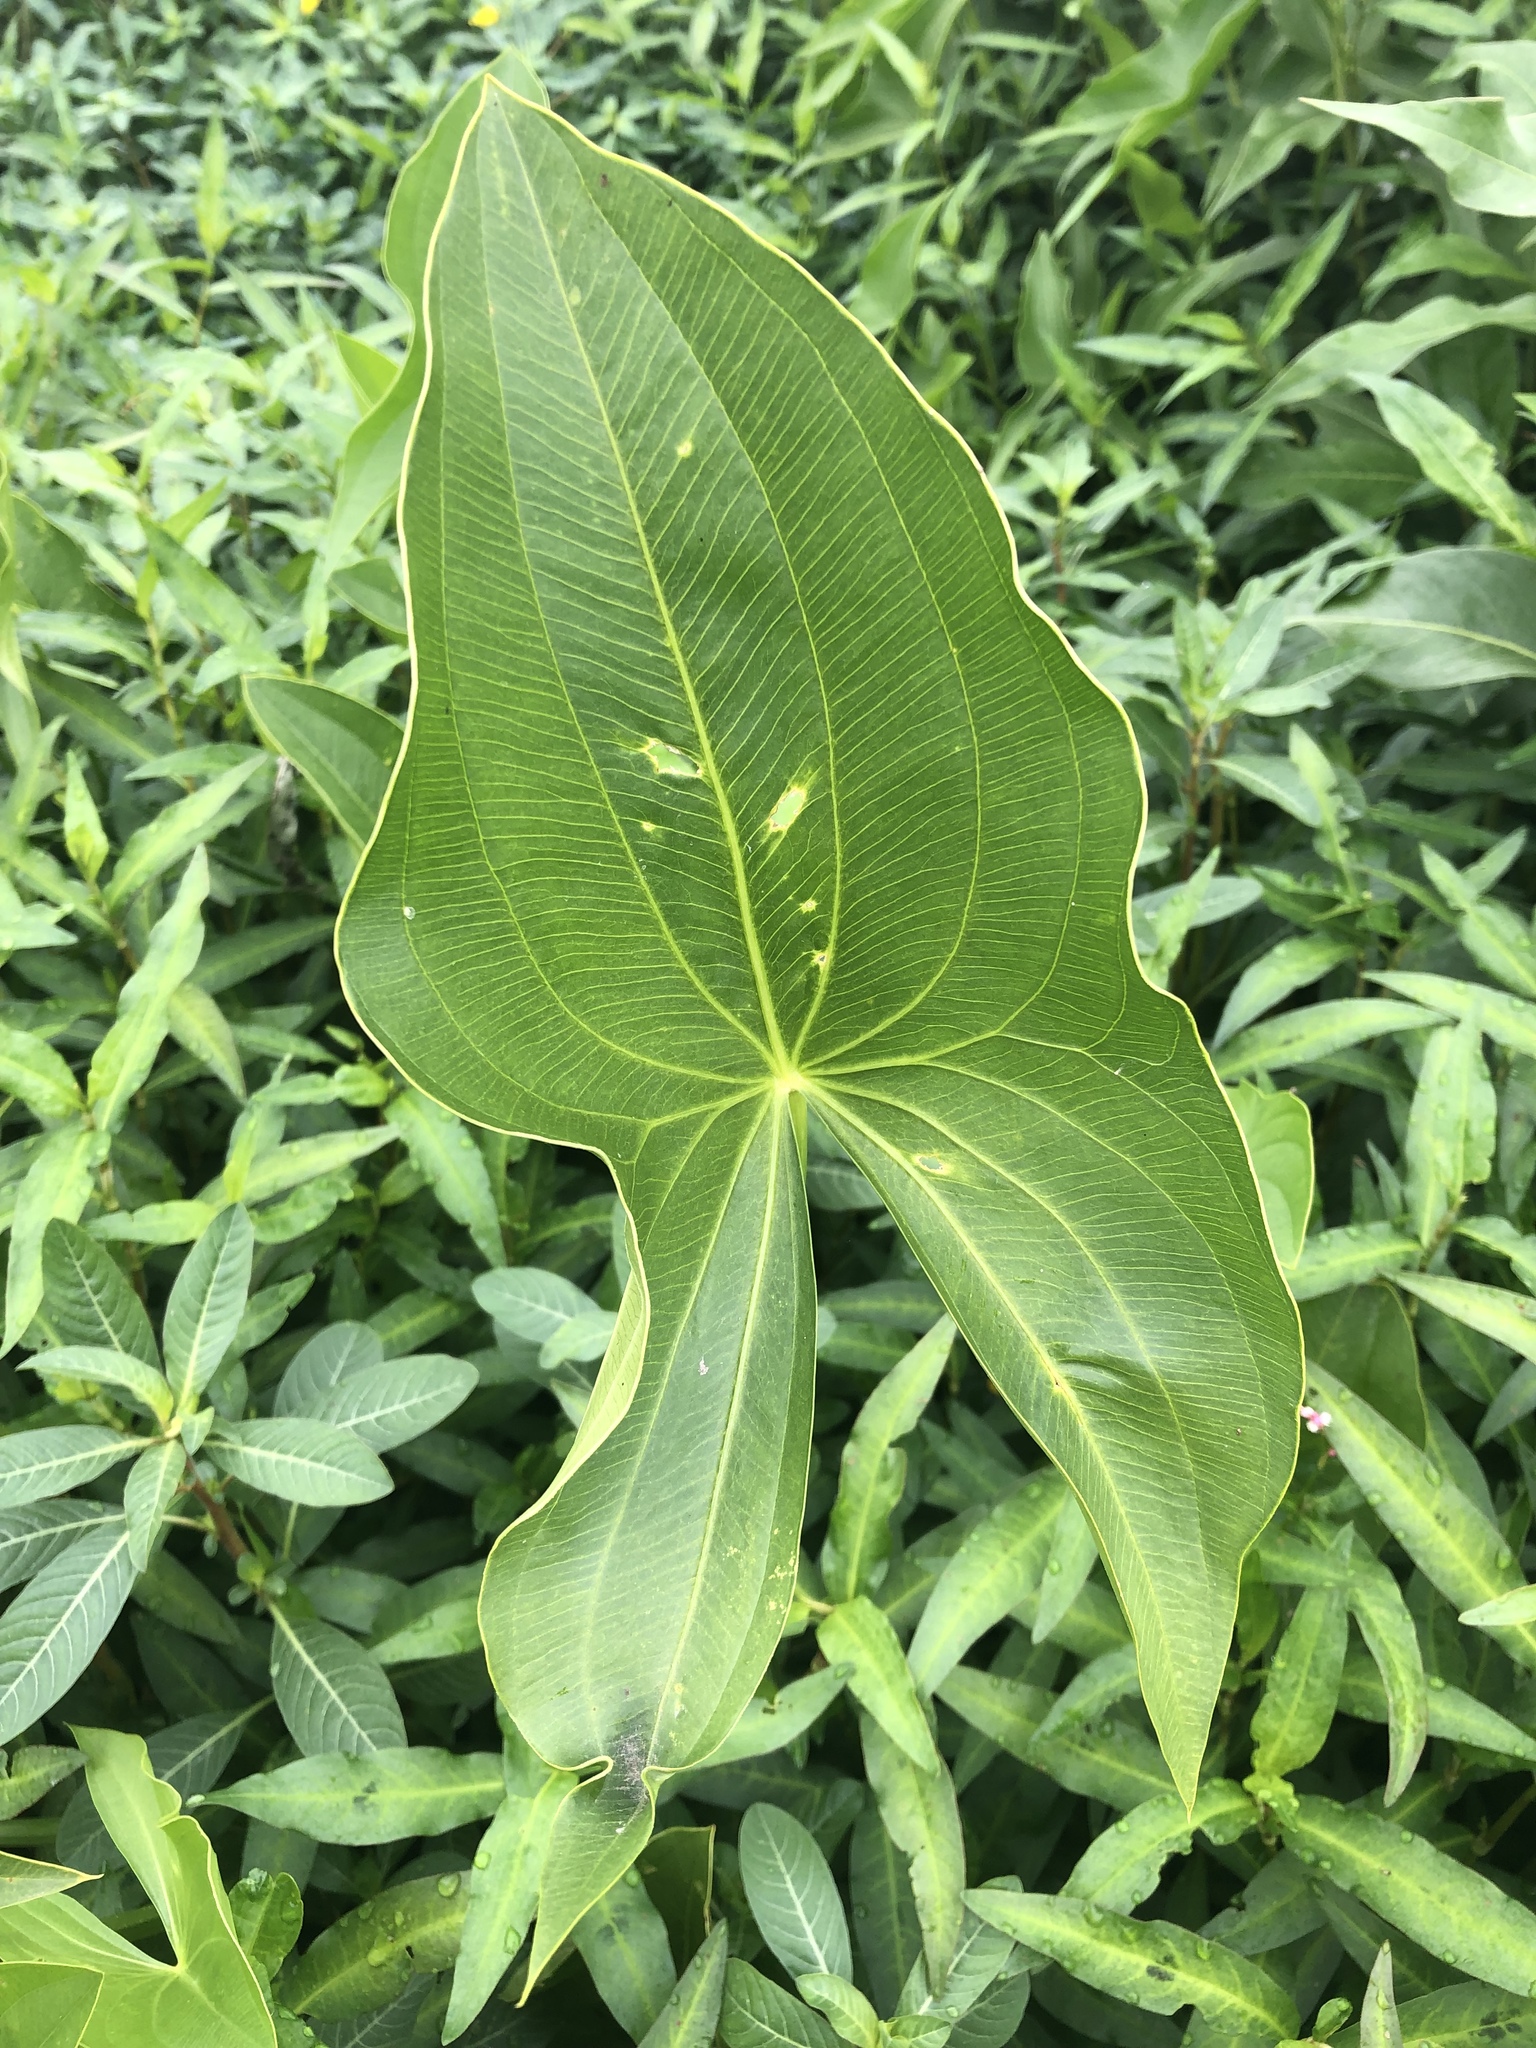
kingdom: Plantae
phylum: Tracheophyta
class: Liliopsida
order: Alismatales
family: Alismataceae
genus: Sagittaria
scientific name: Sagittaria latifolia
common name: Duck-potato
